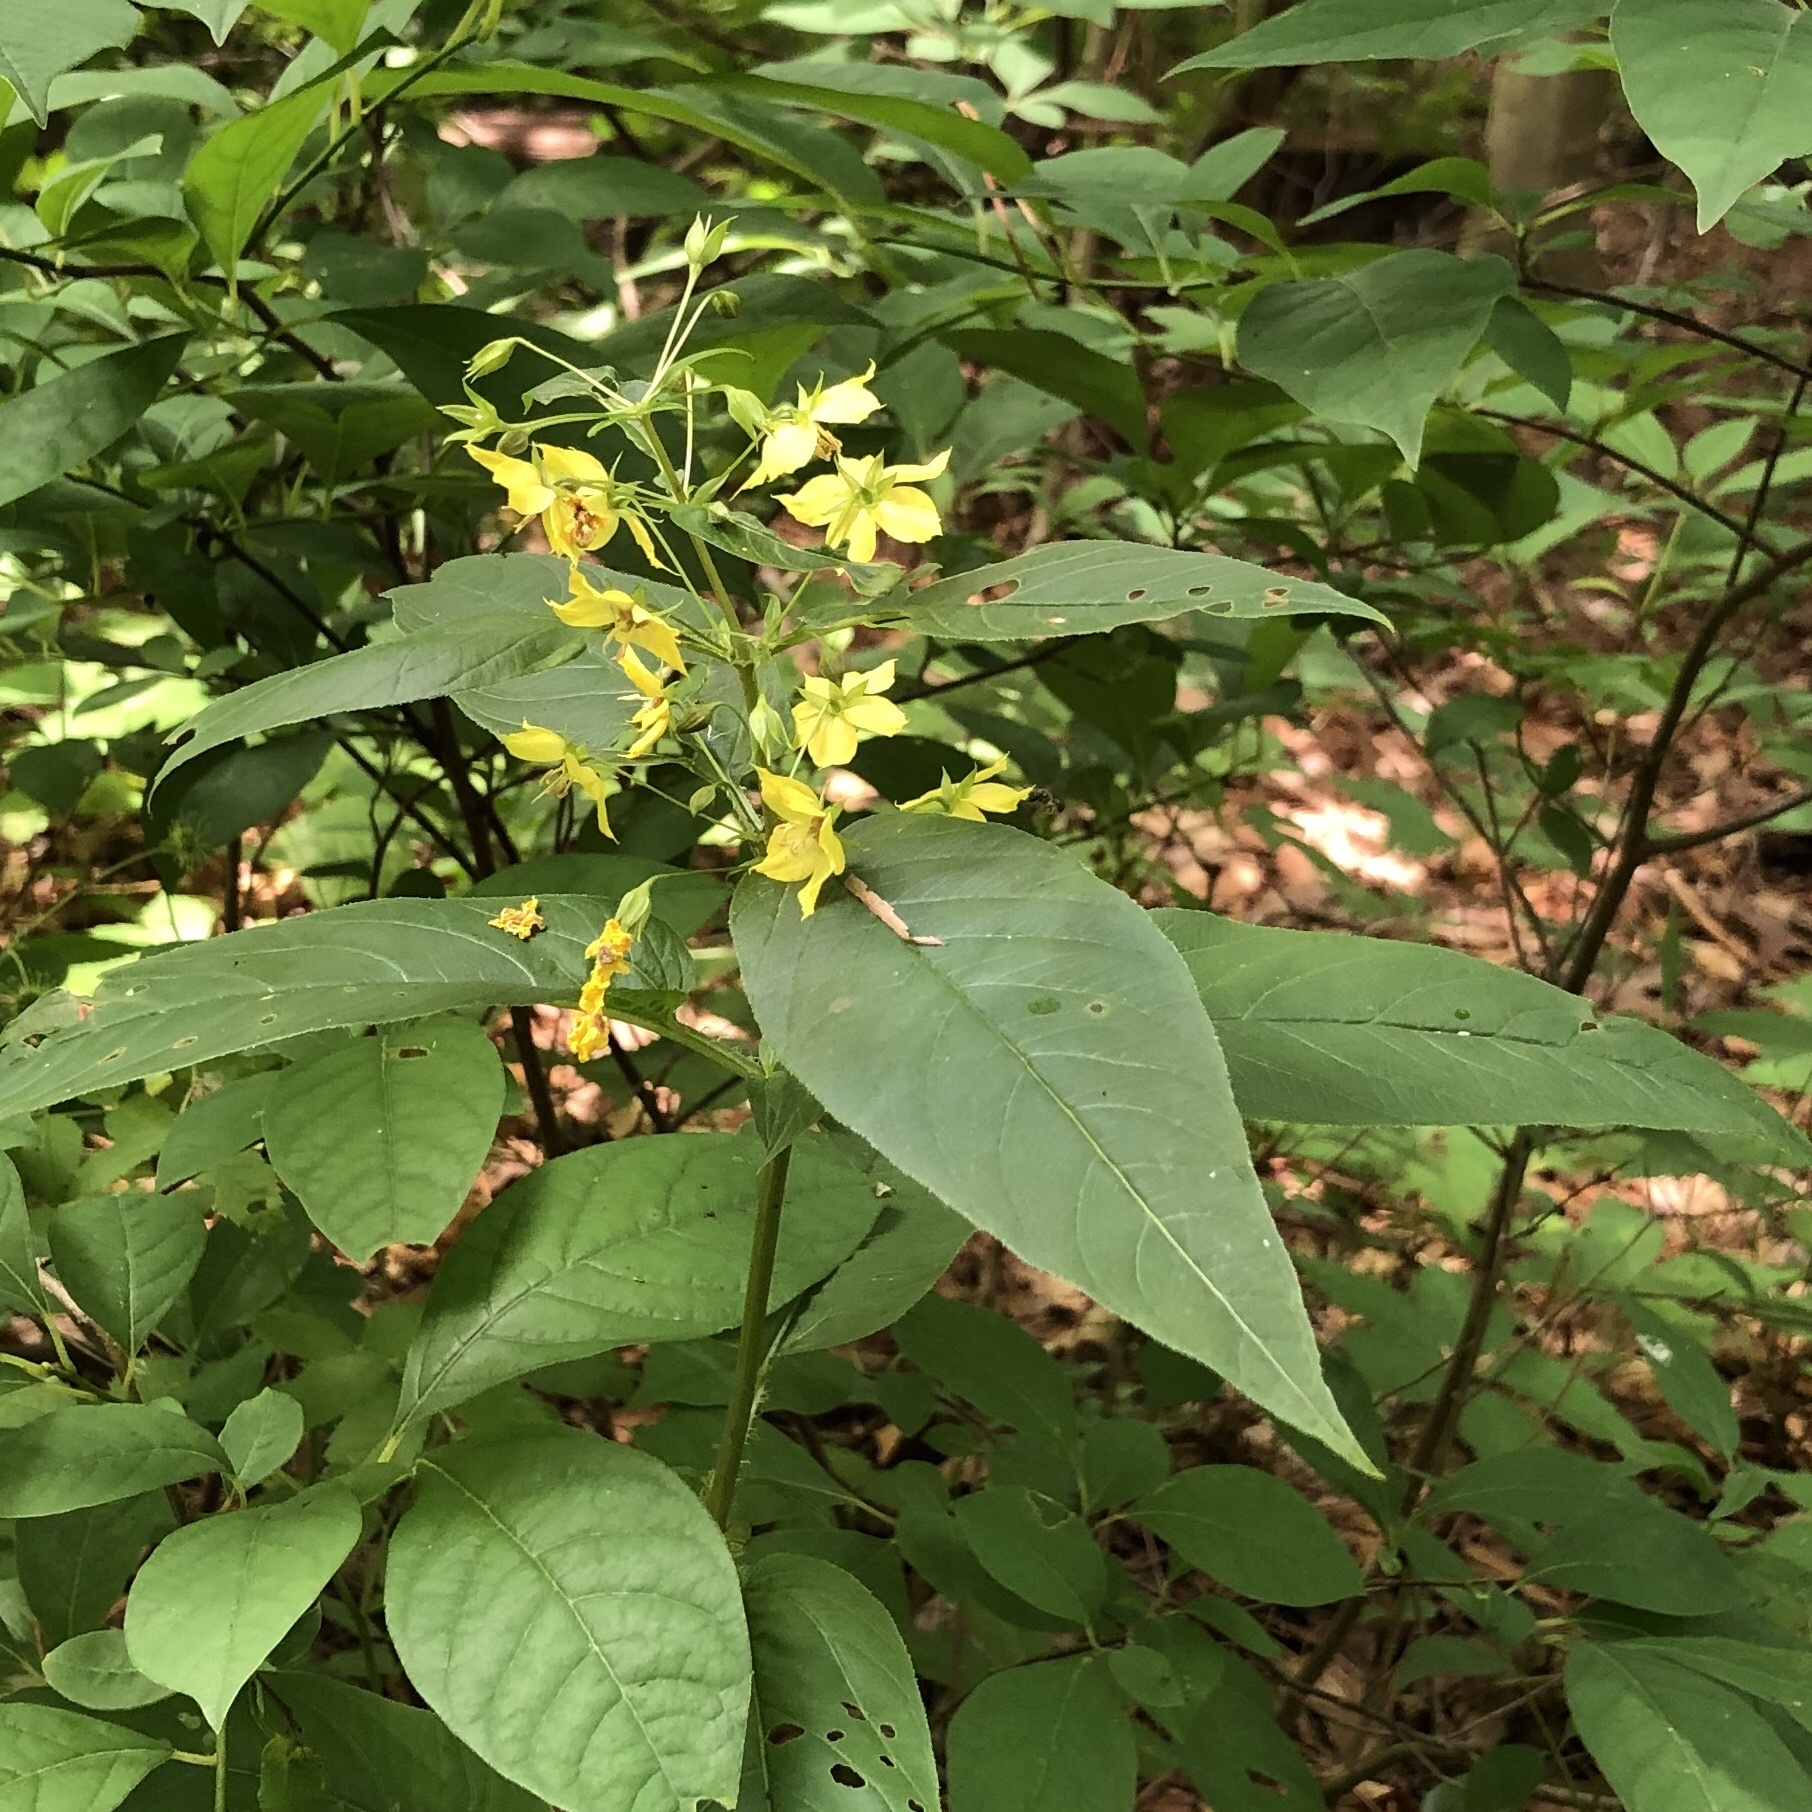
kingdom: Plantae
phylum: Tracheophyta
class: Magnoliopsida
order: Ericales
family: Primulaceae
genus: Lysimachia
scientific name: Lysimachia ciliata
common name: Fringed loosestrife
